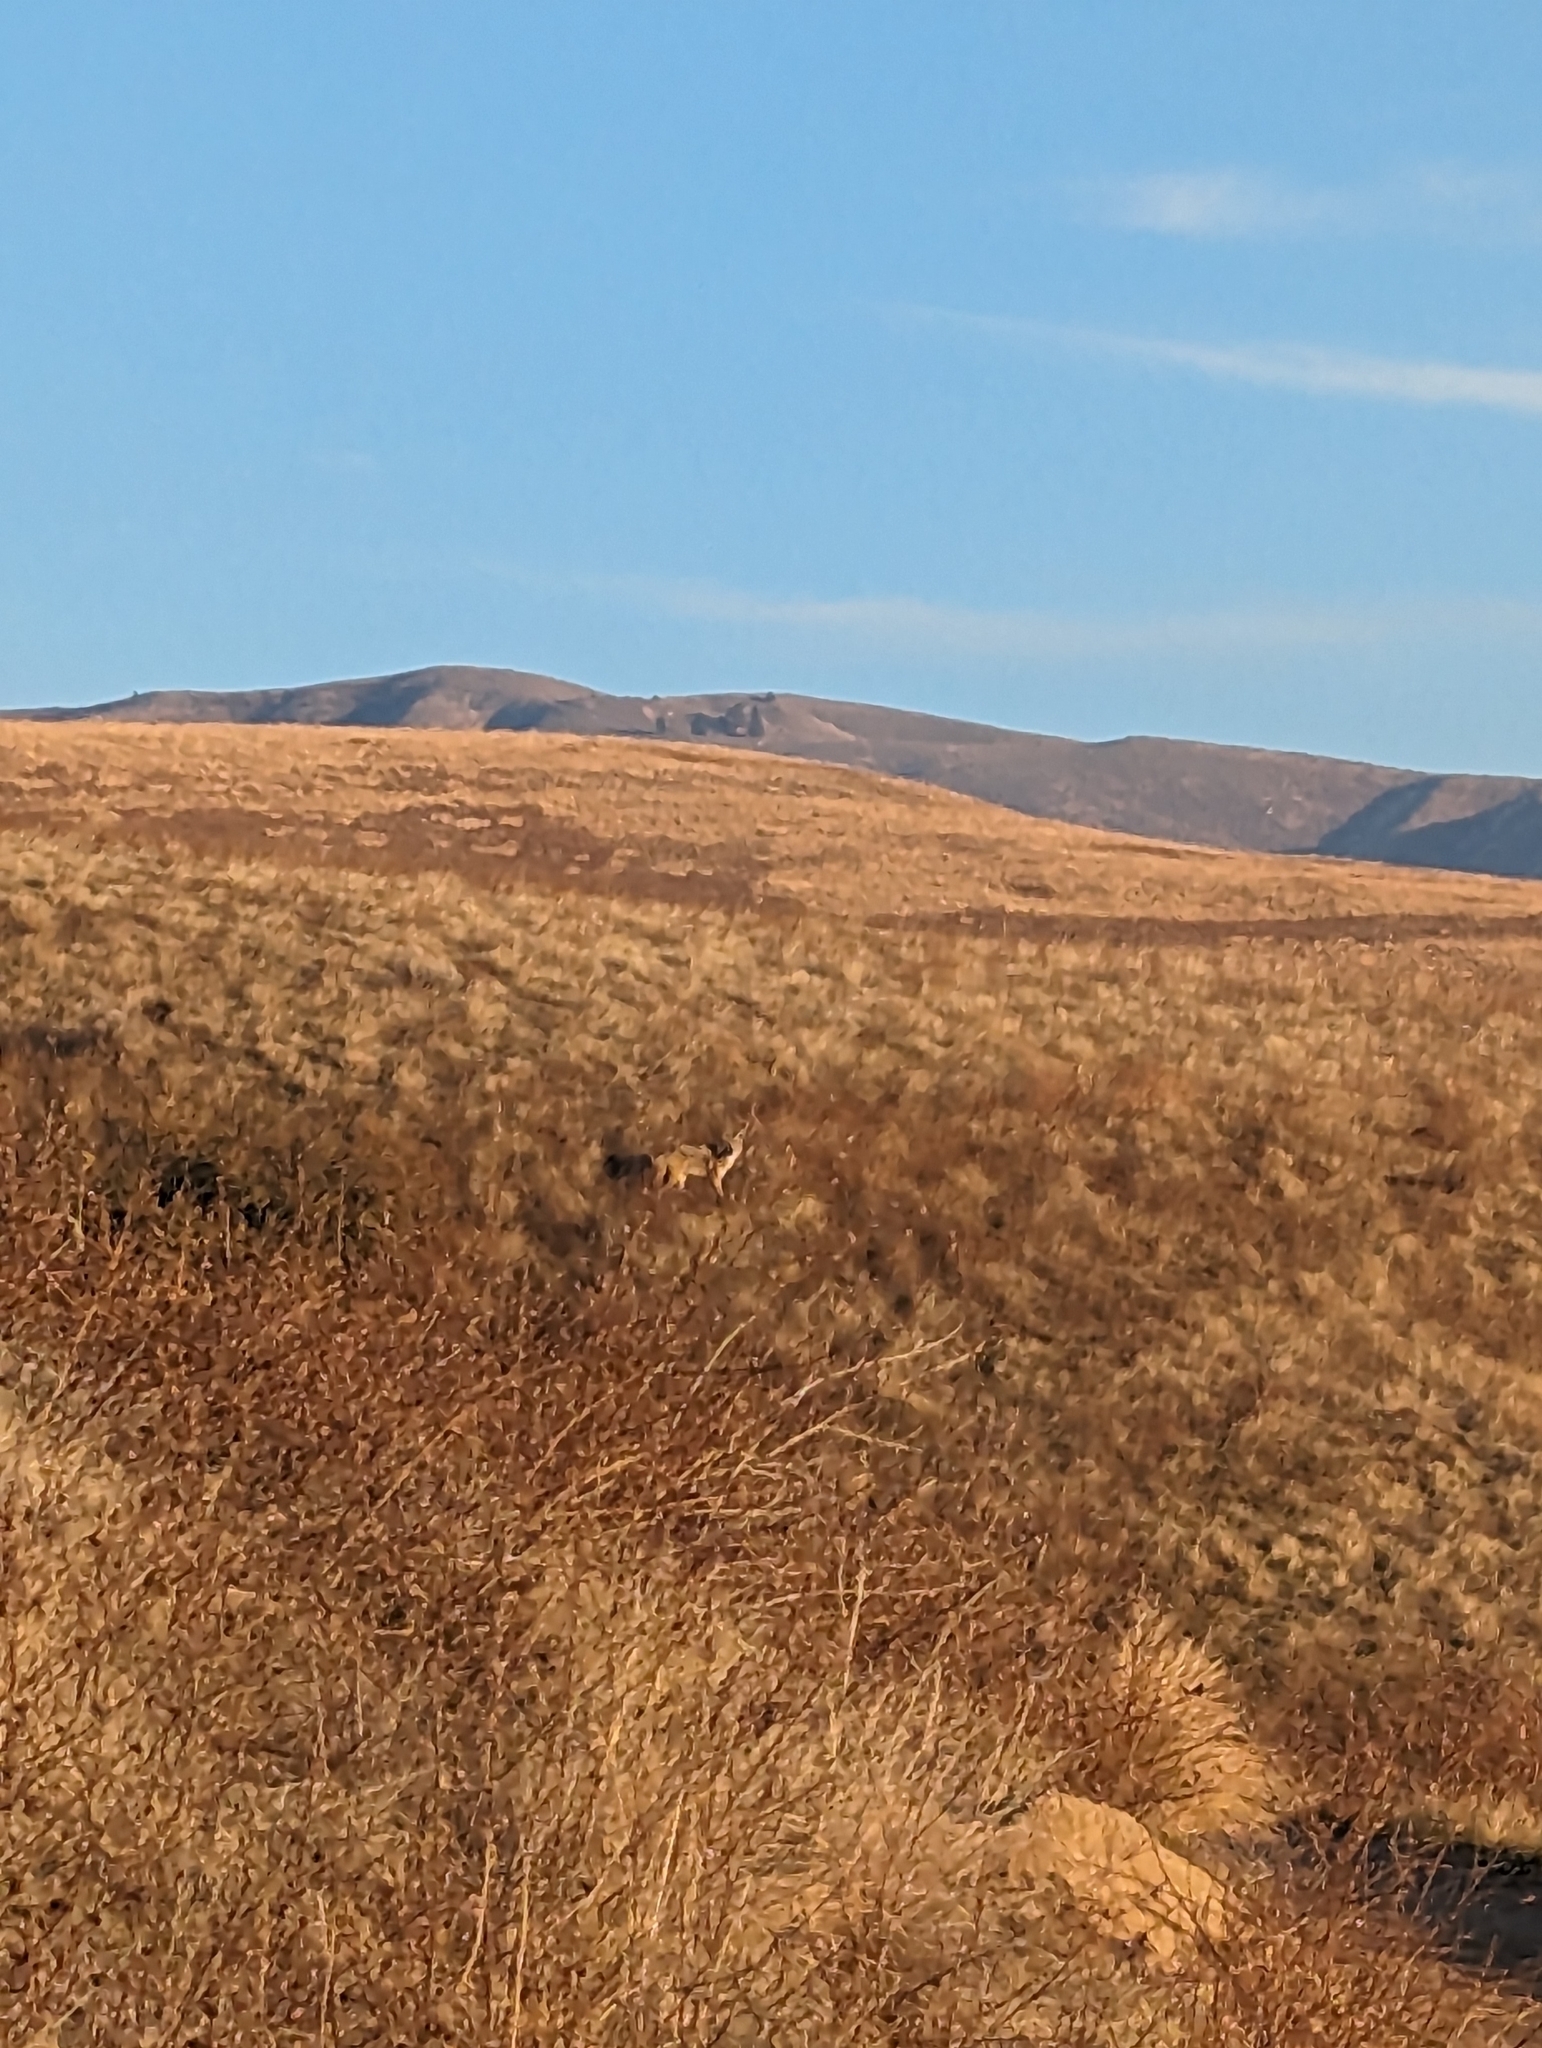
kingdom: Animalia
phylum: Chordata
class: Mammalia
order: Carnivora
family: Canidae
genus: Canis
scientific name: Canis latrans
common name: Coyote
